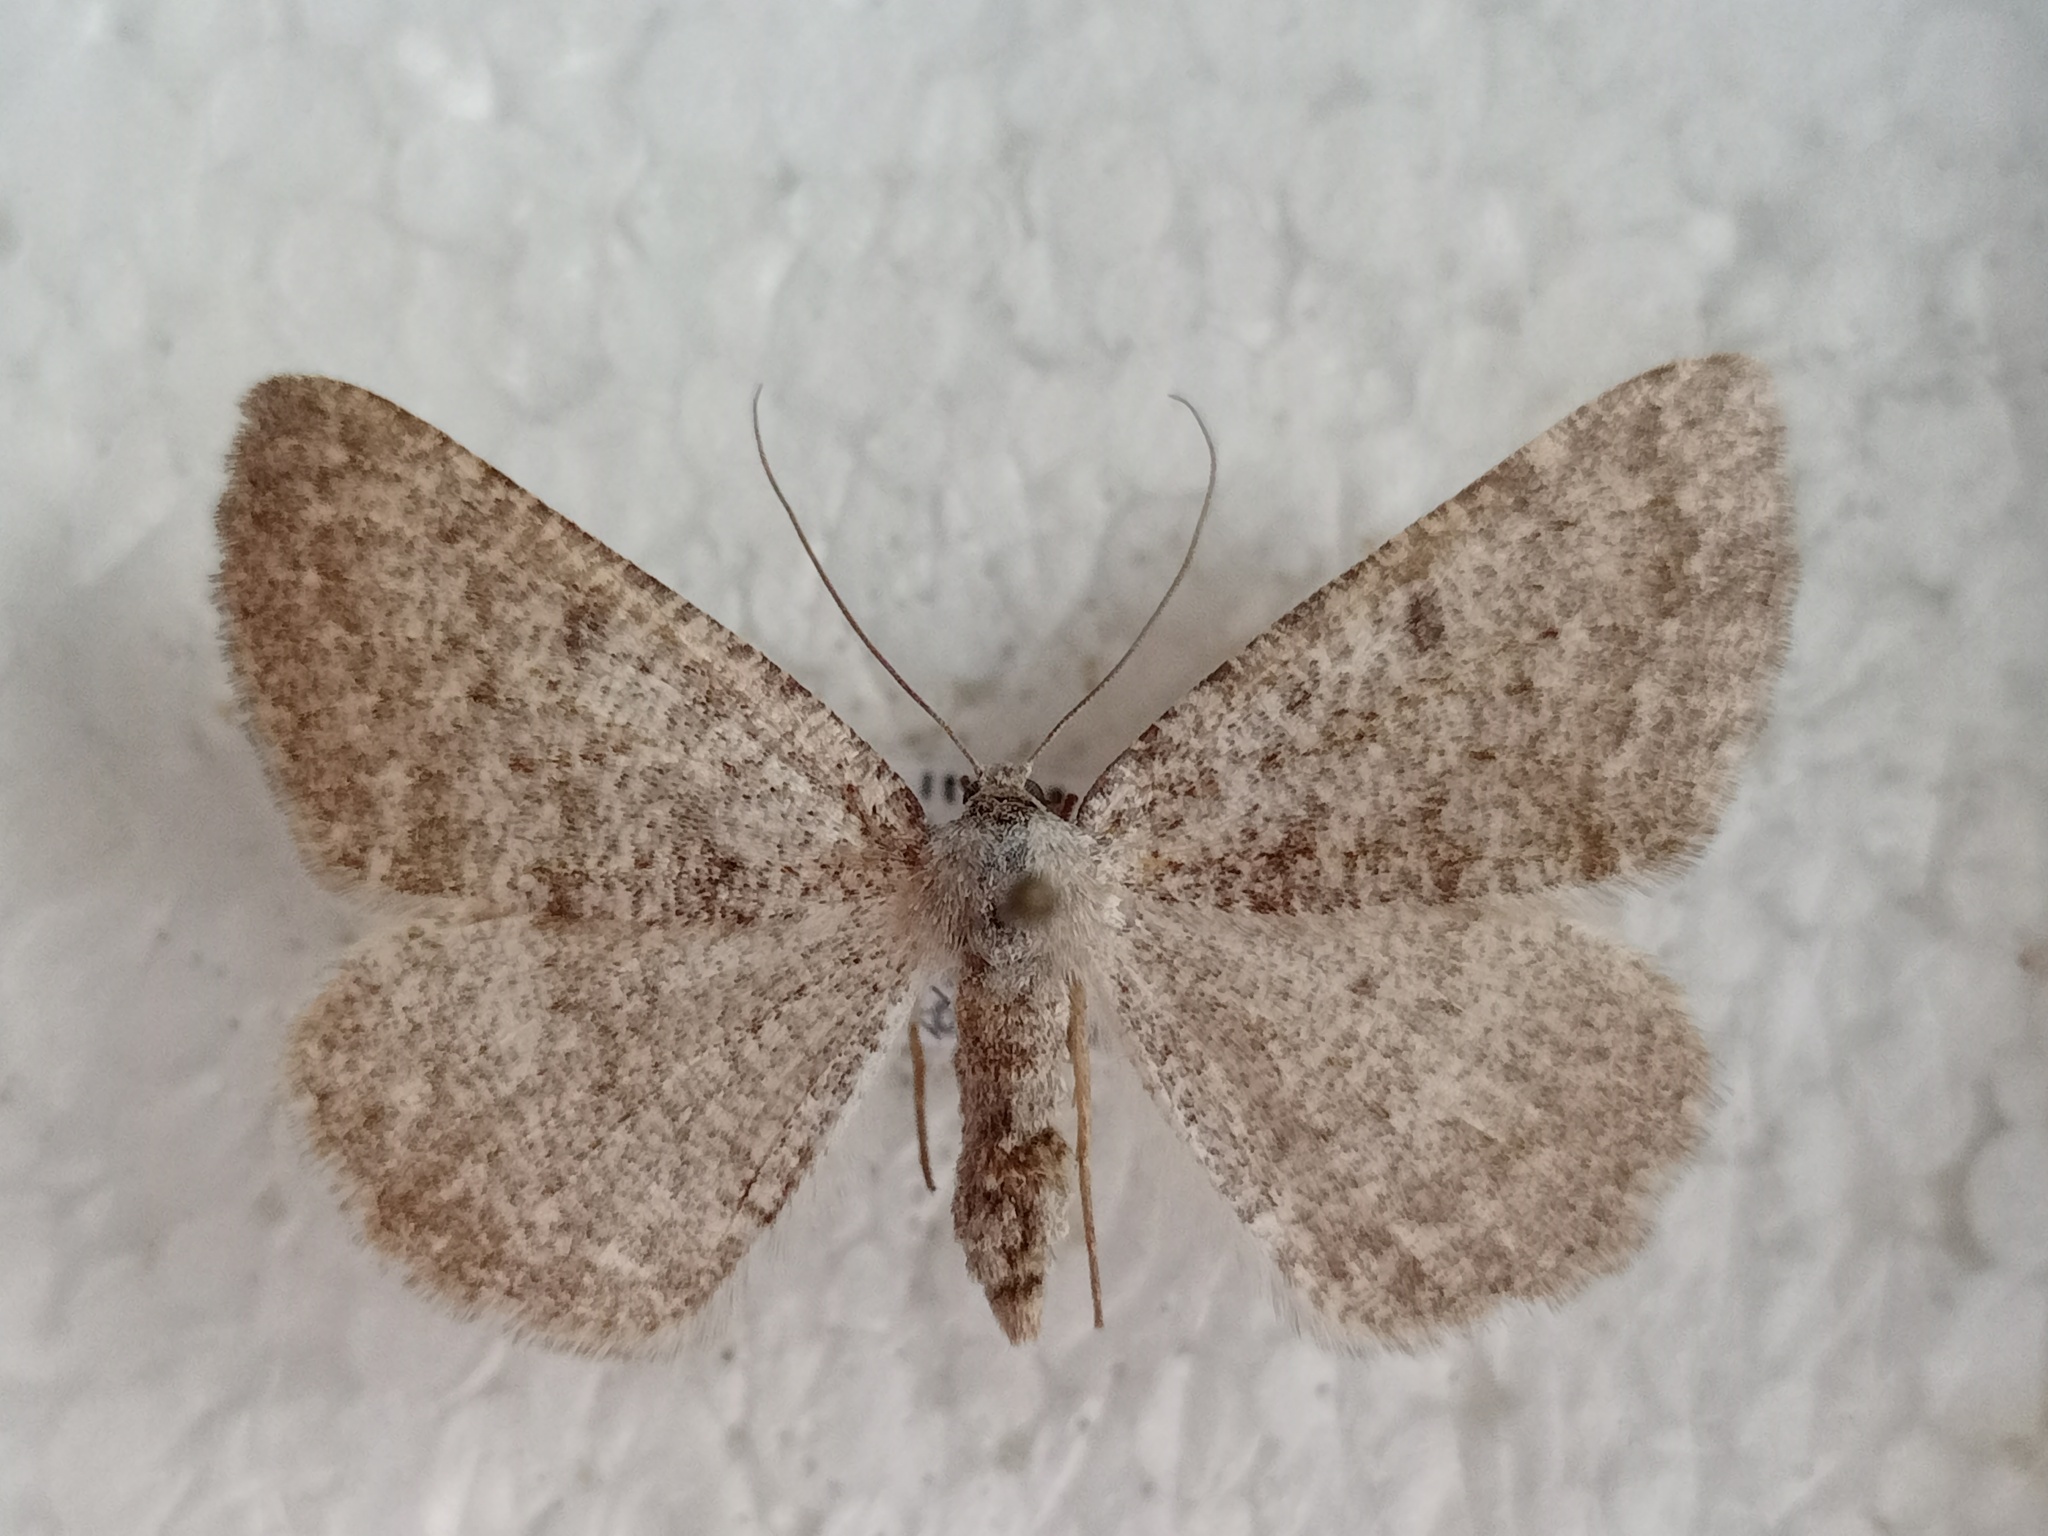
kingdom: Animalia
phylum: Arthropoda
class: Insecta
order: Lepidoptera
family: Geometridae
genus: Gnophos
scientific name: Gnophos obfuscata
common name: Scottish annulet
